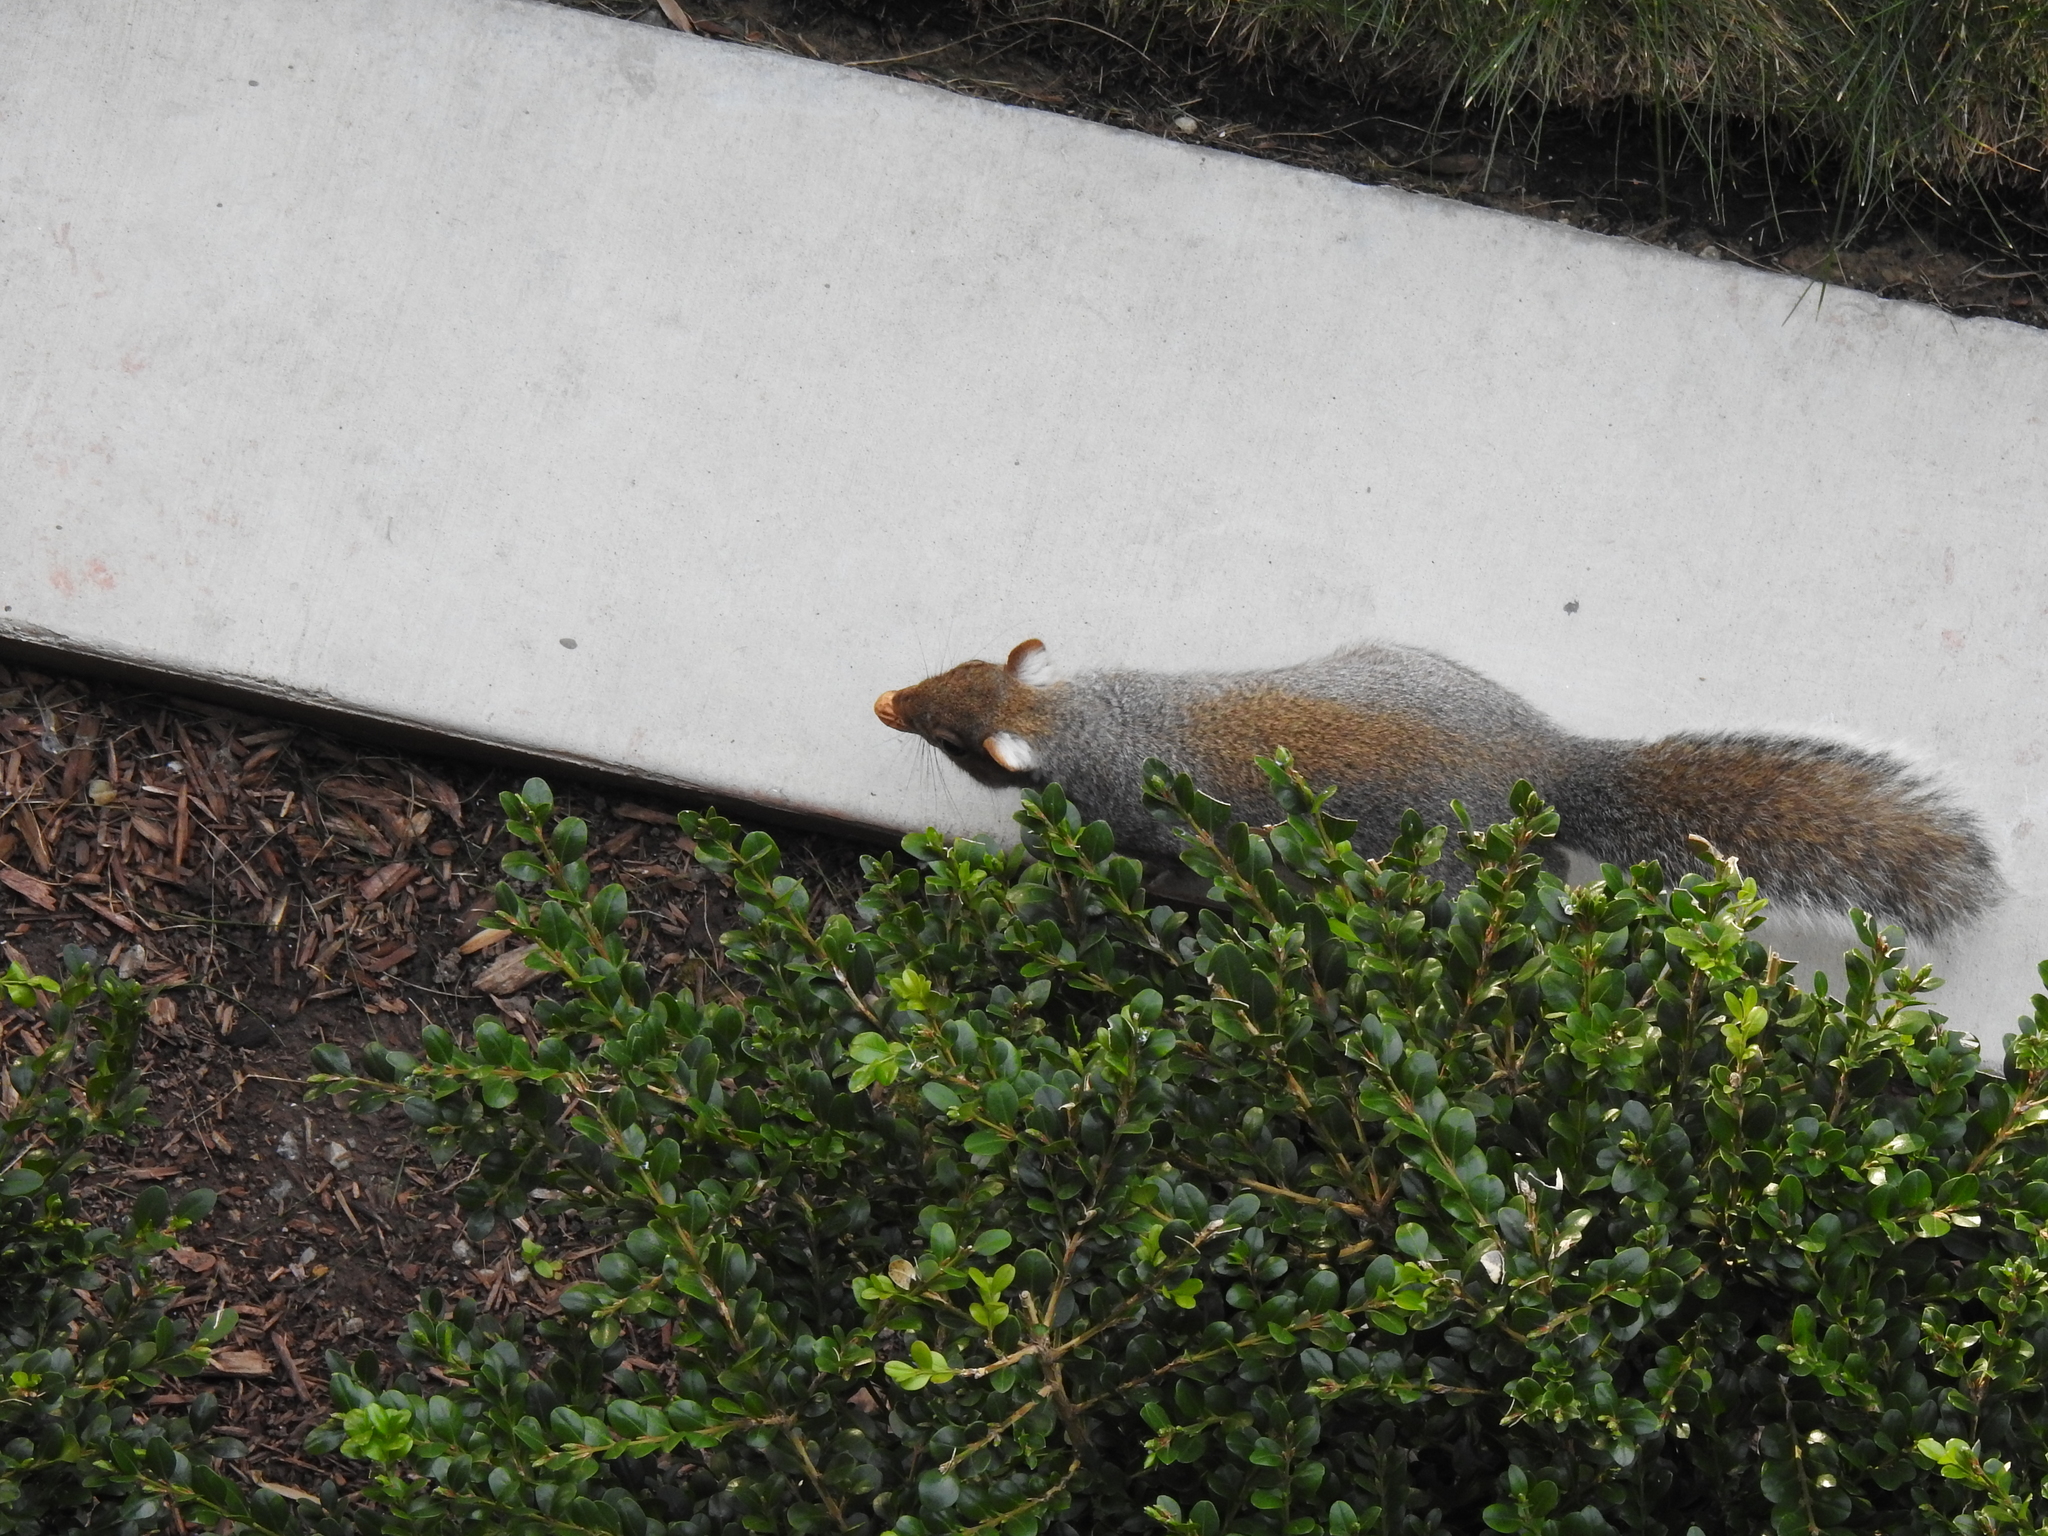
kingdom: Animalia
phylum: Chordata
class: Mammalia
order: Rodentia
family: Sciuridae
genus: Sciurus
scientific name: Sciurus carolinensis
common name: Eastern gray squirrel
